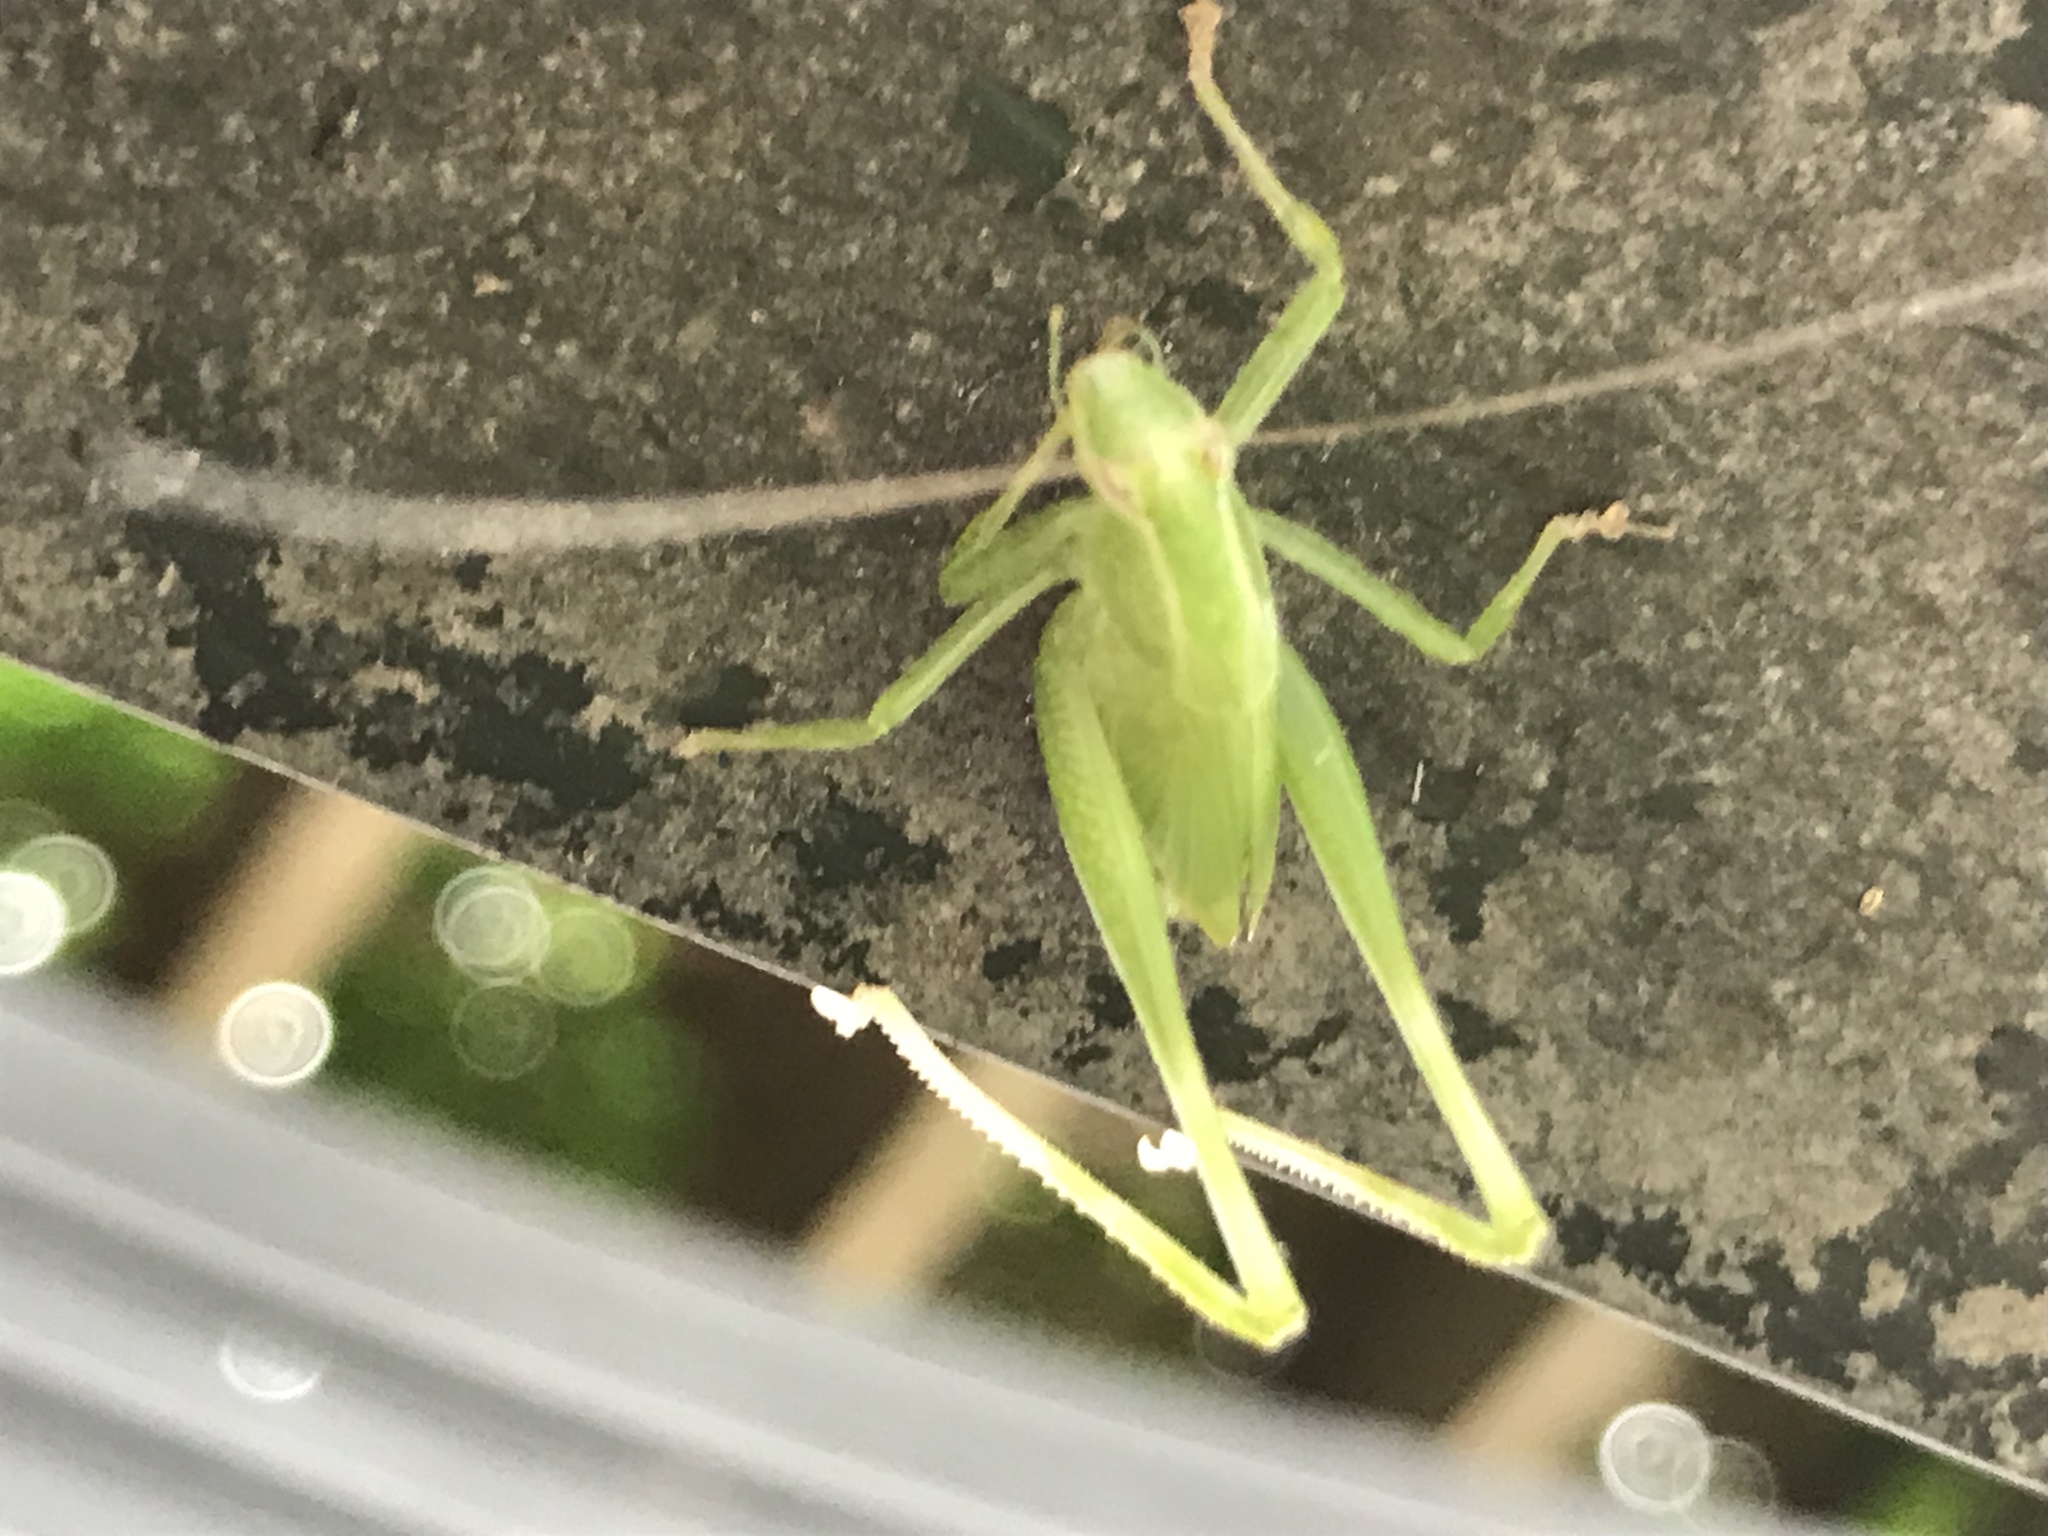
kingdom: Animalia
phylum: Arthropoda
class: Insecta
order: Orthoptera
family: Tettigoniidae
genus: Montezumina
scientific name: Montezumina modesta
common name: Modest katydid
